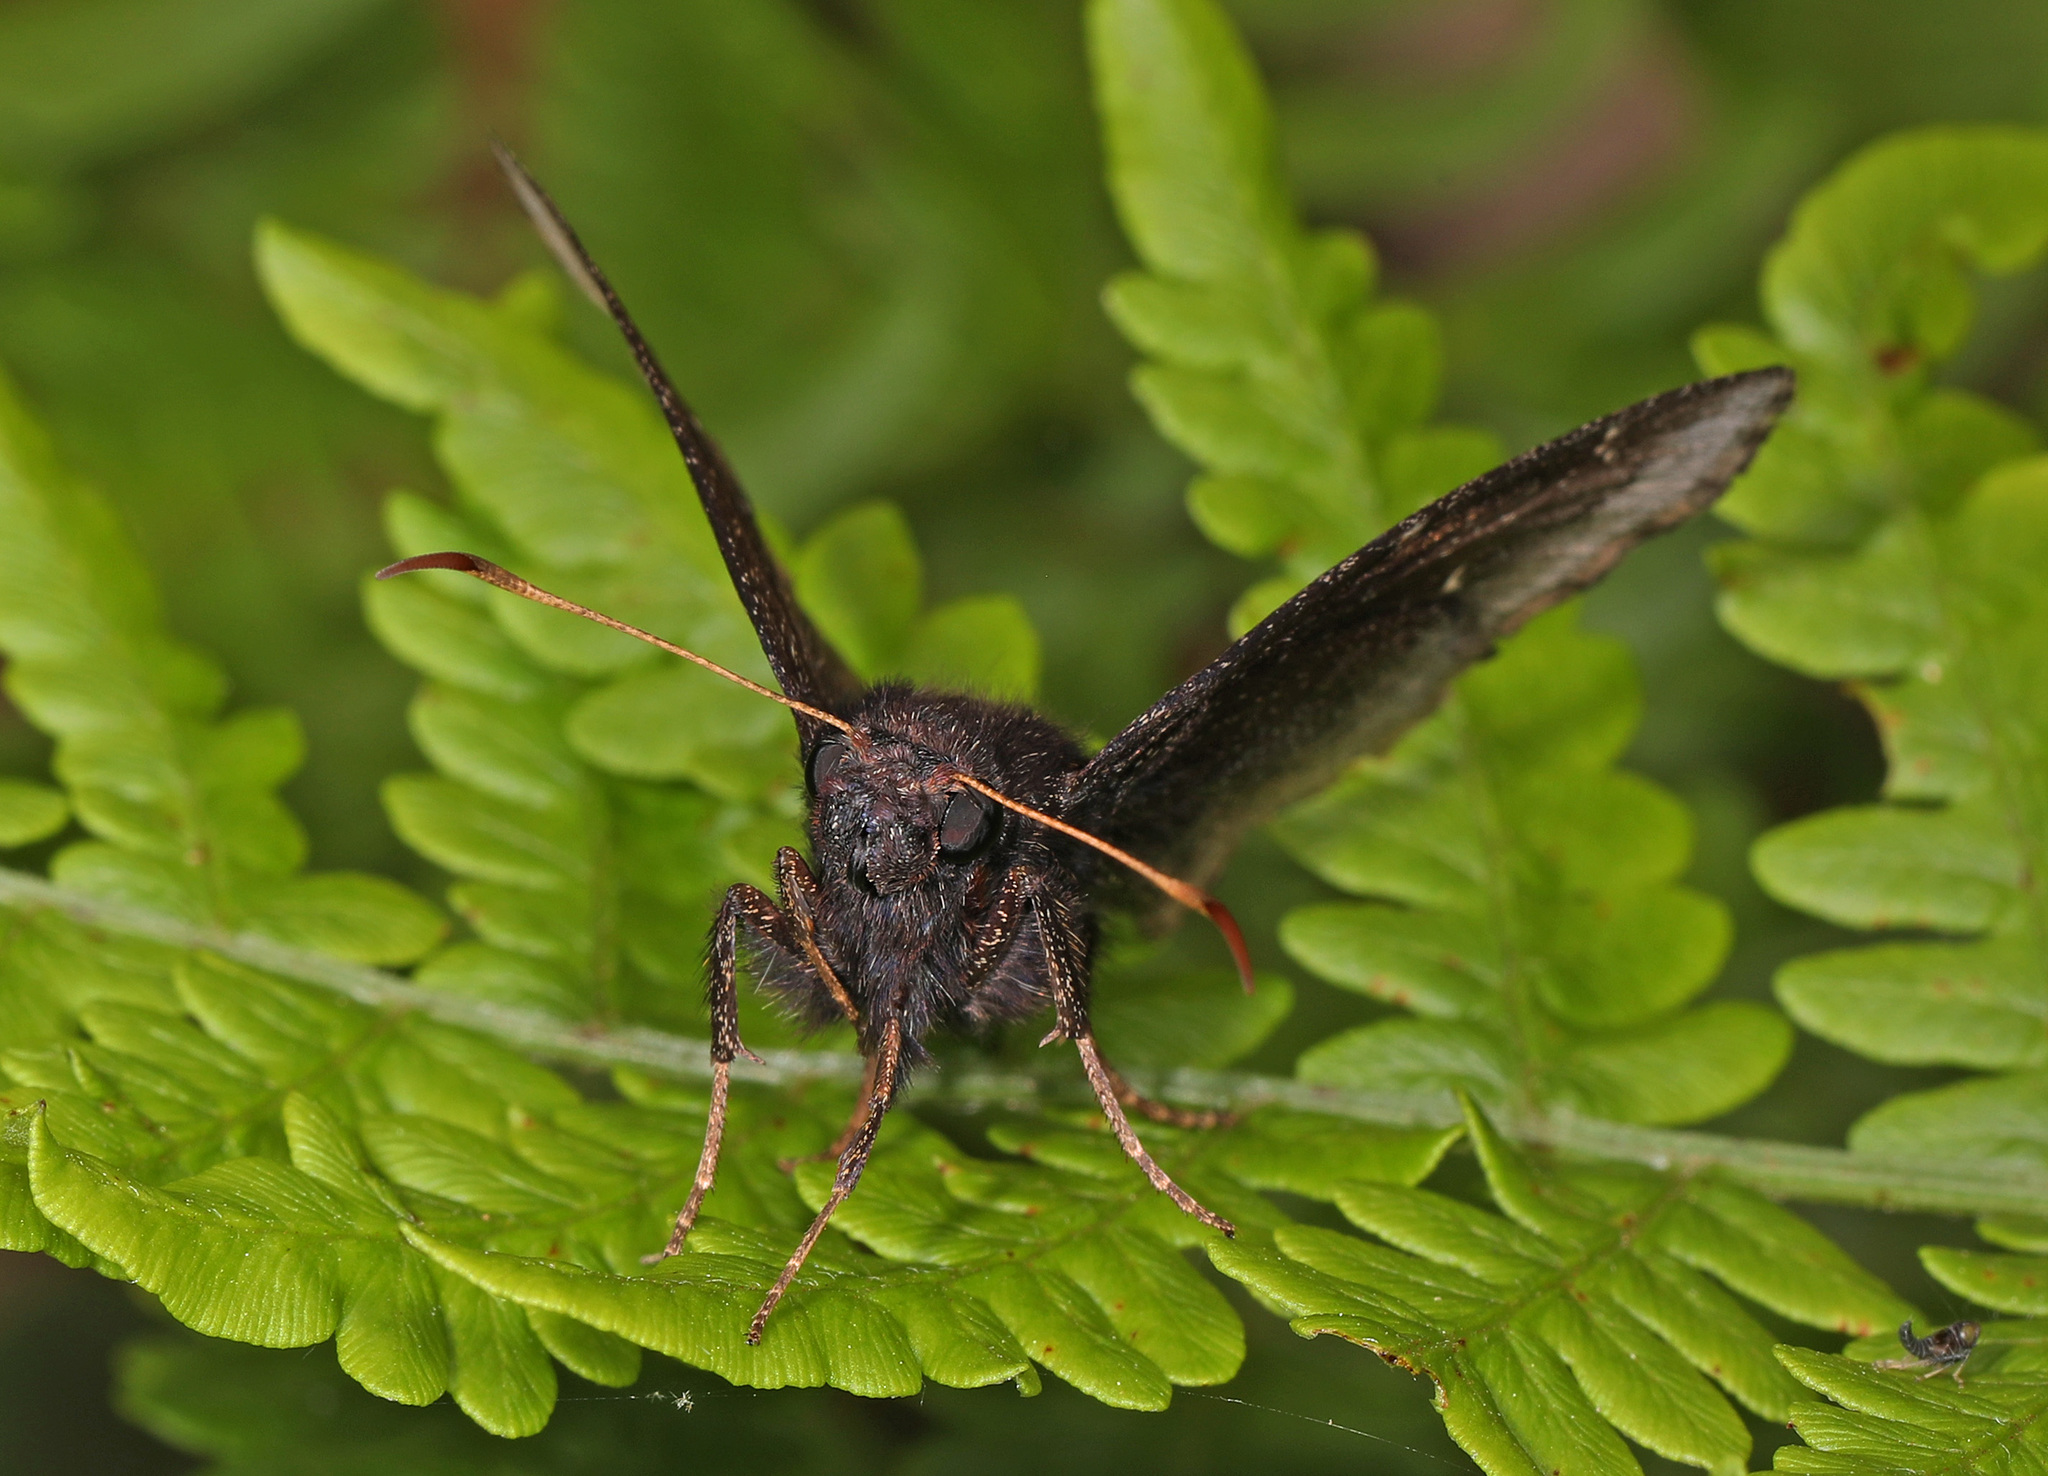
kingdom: Animalia
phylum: Arthropoda
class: Insecta
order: Lepidoptera
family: Hesperiidae
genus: Thorybes
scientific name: Thorybes pylades
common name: Northern cloudywing
